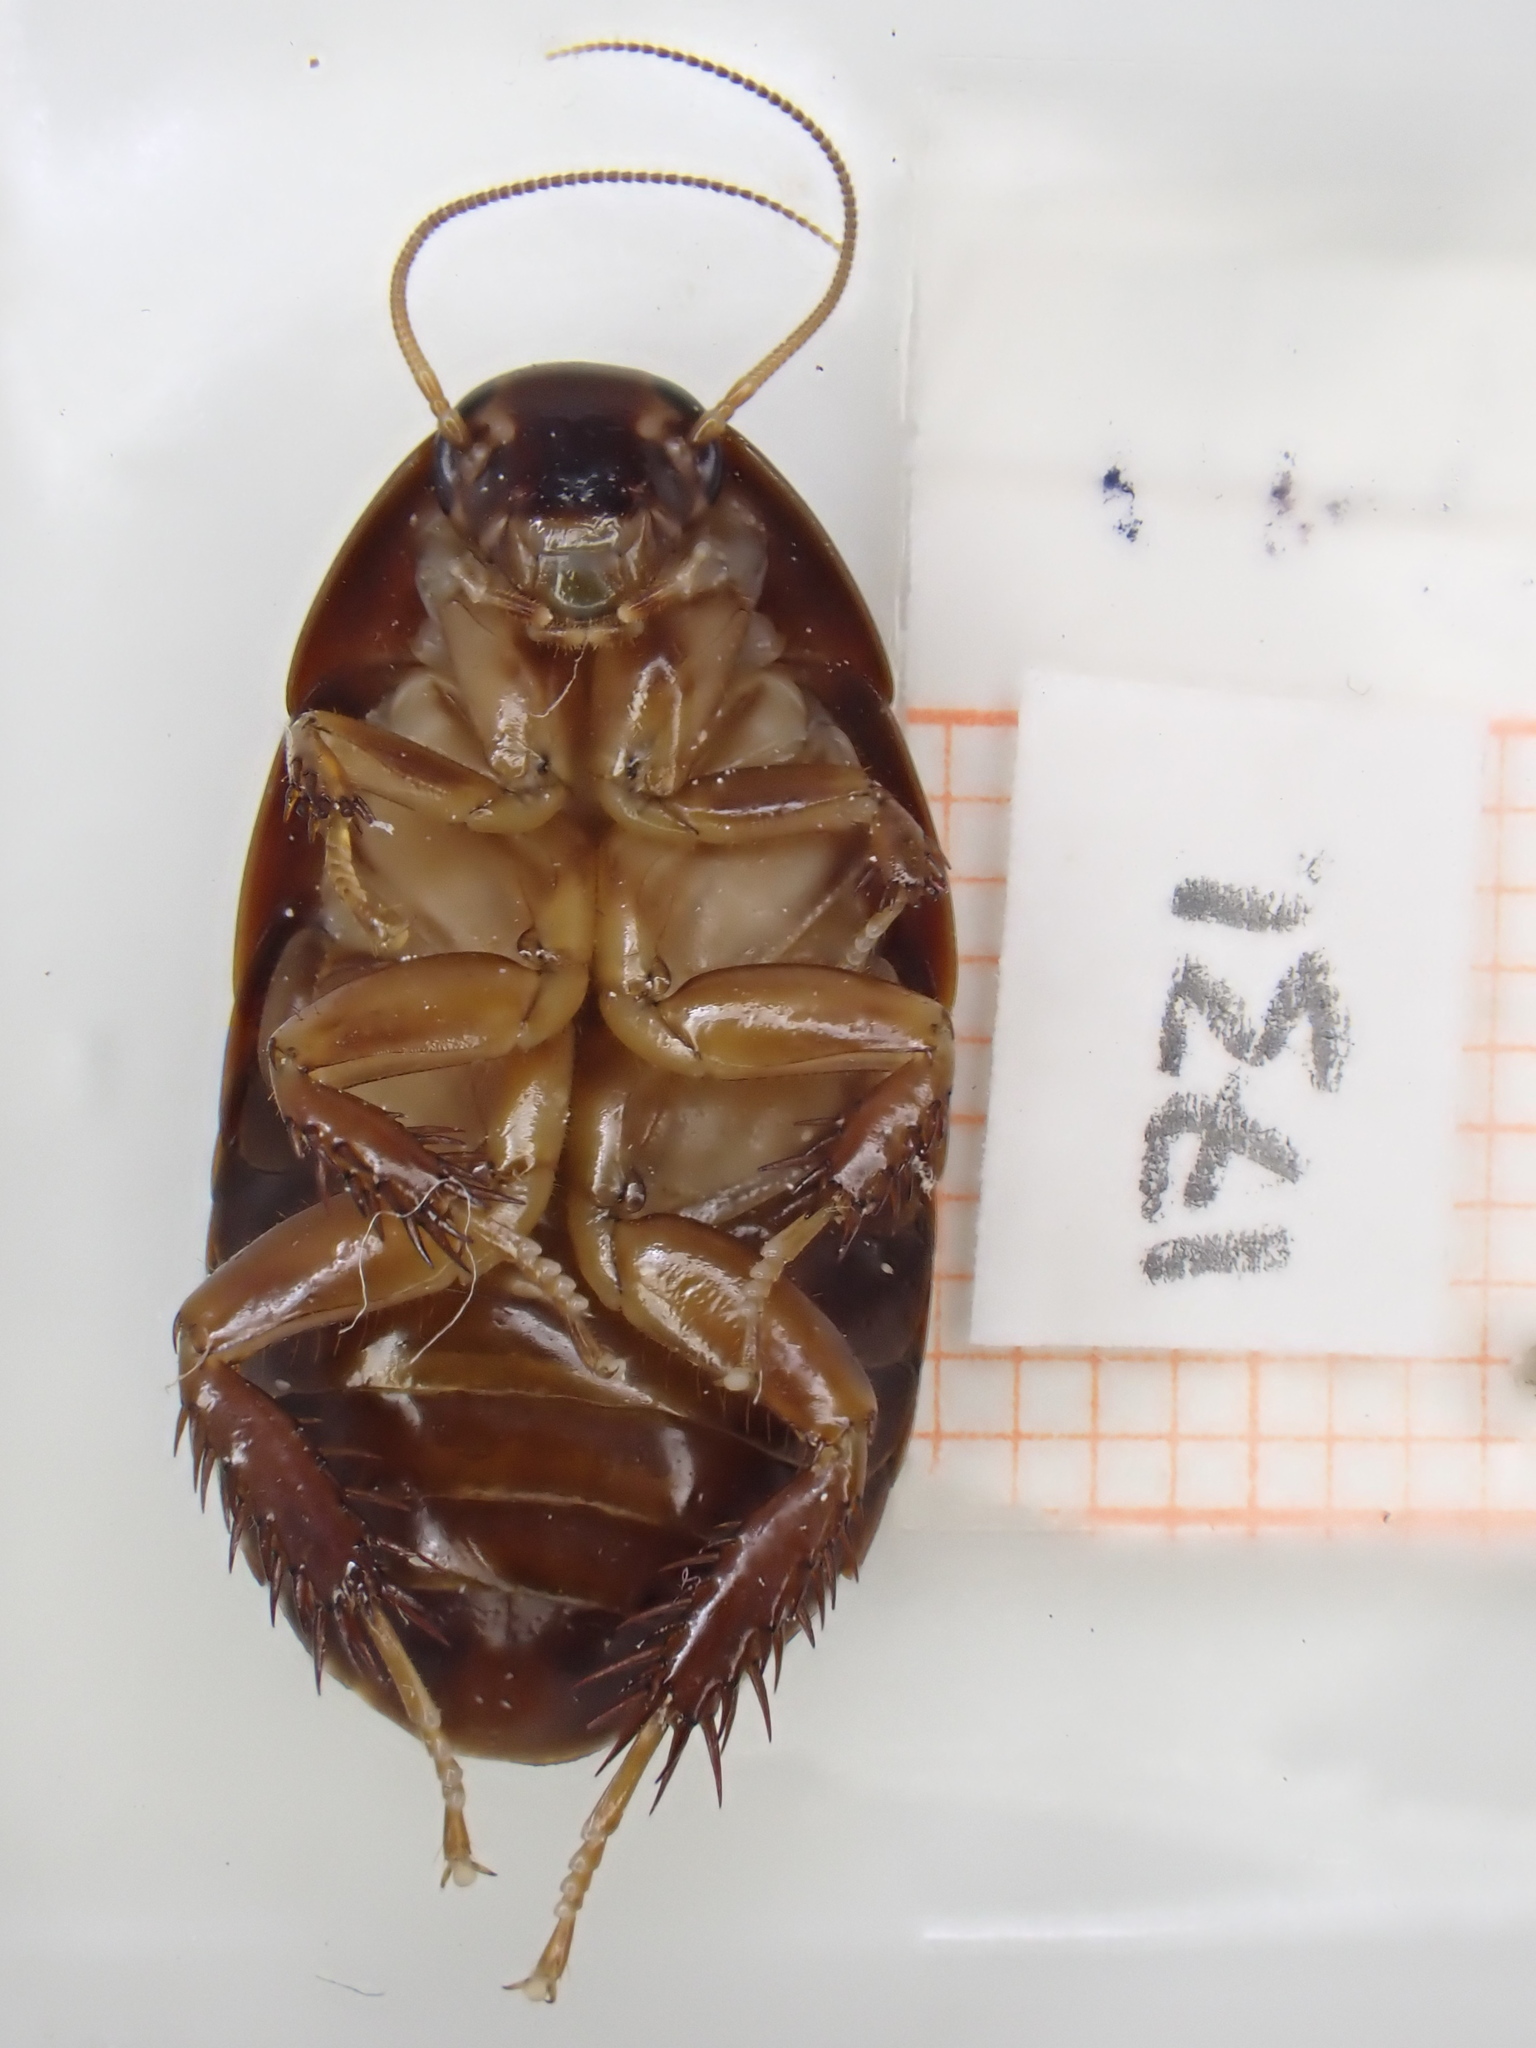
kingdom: Animalia
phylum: Arthropoda
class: Insecta
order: Blattodea
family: Blaberidae
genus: Pycnoscelus
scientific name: Pycnoscelus surinamensis
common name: Surinam cockroach
